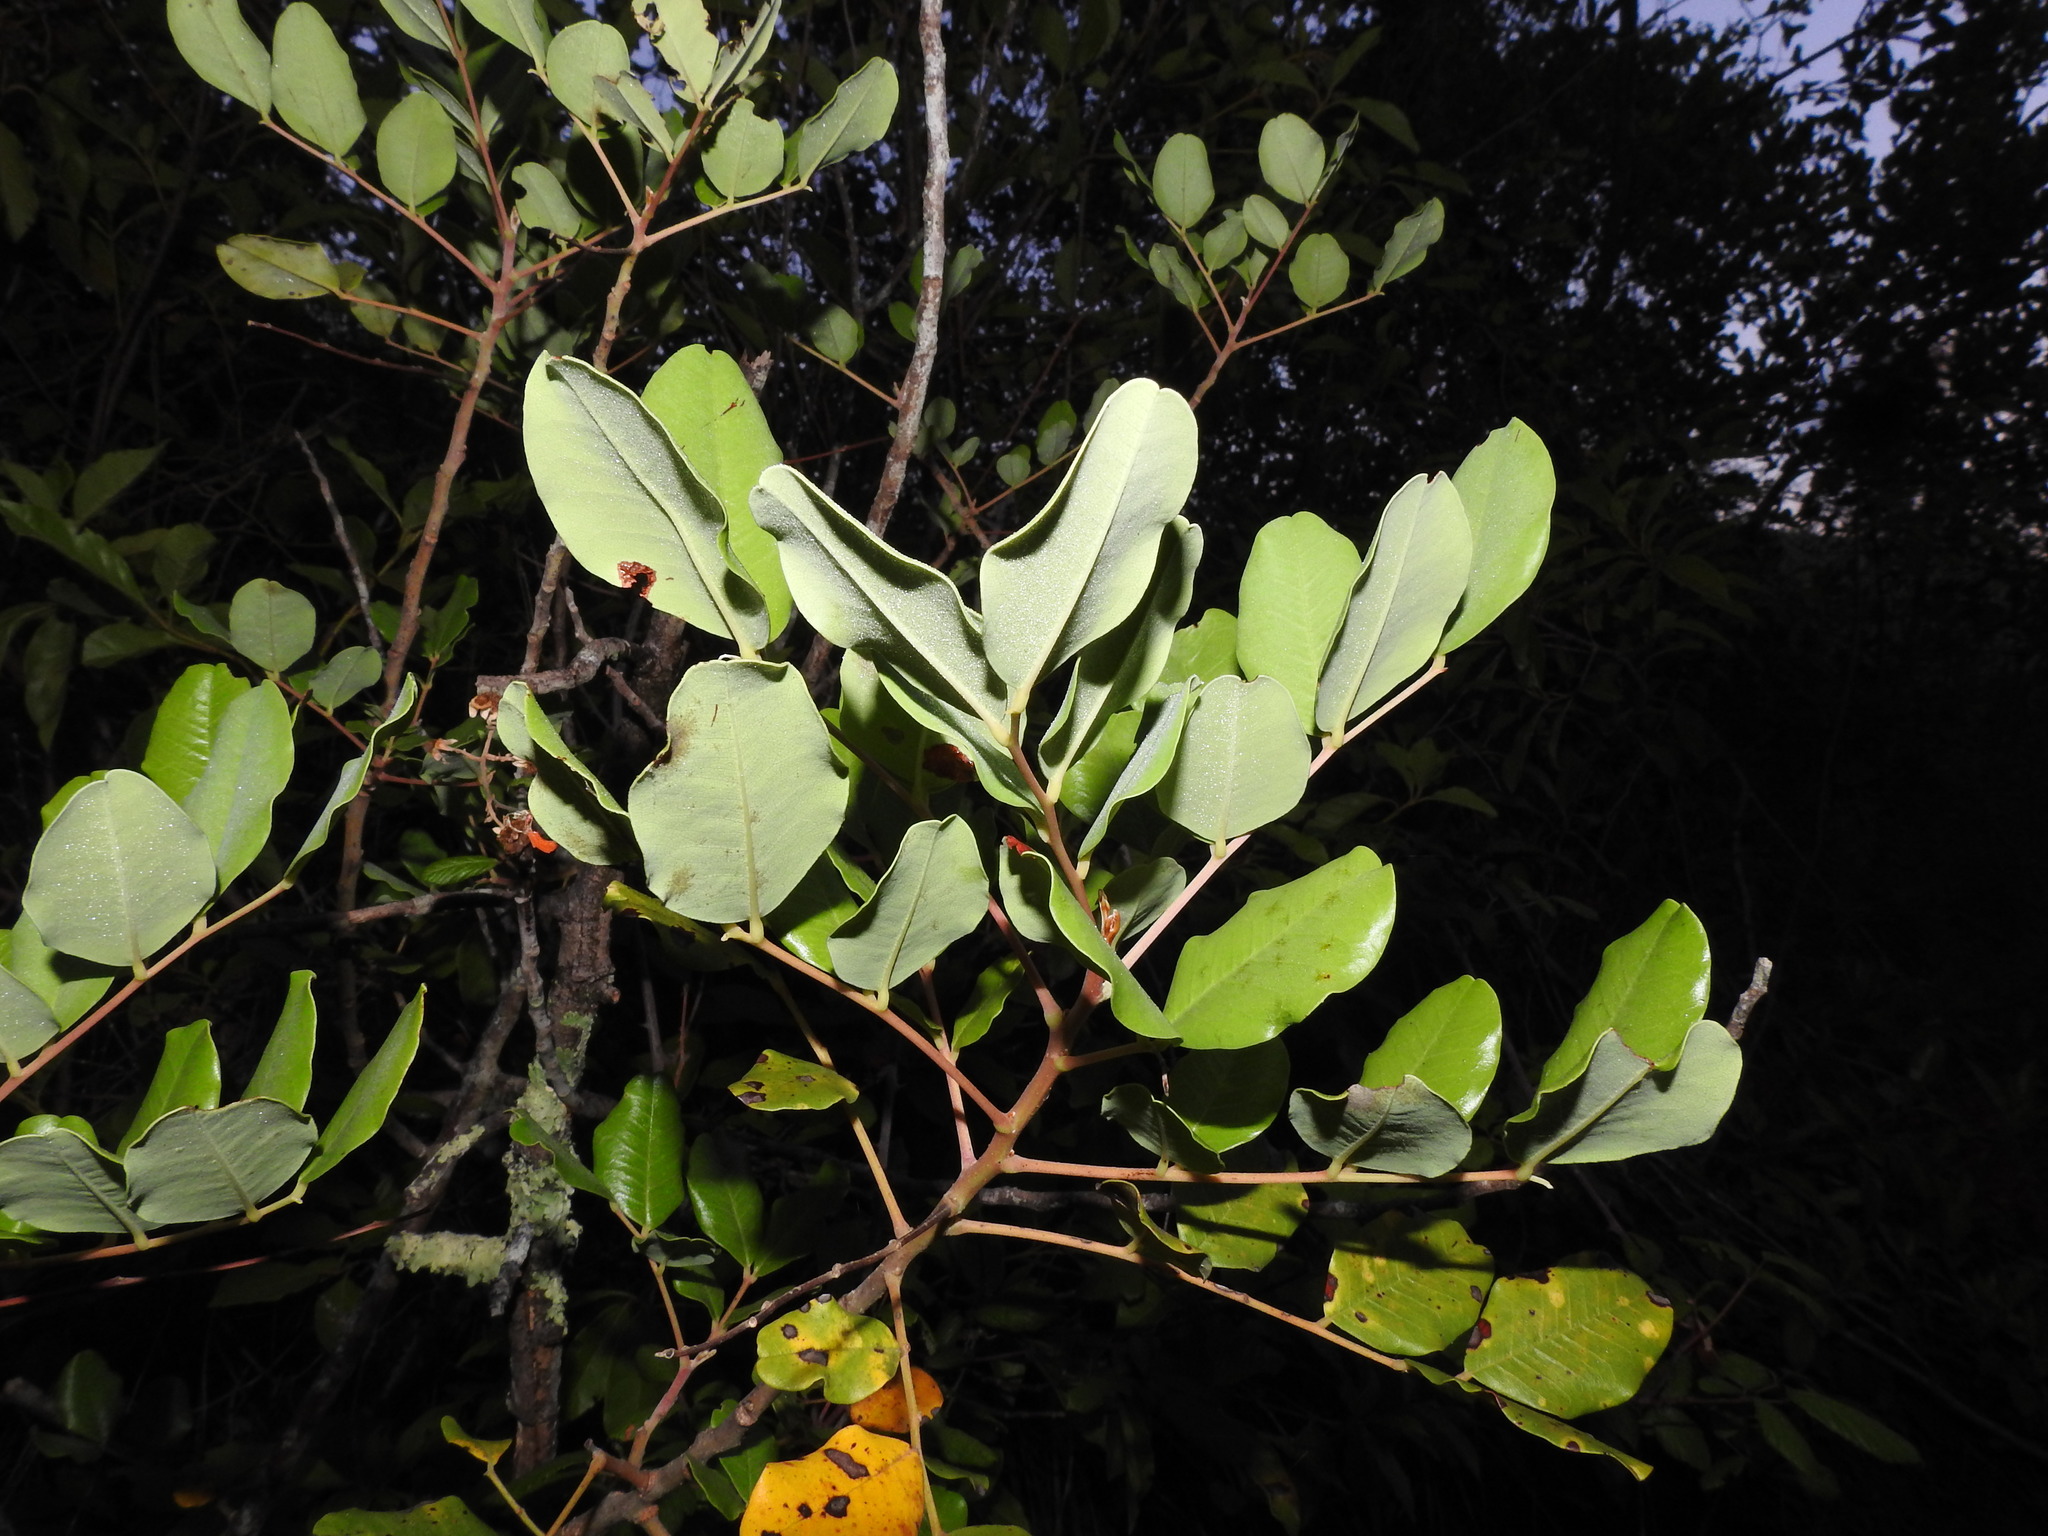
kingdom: Plantae
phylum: Tracheophyta
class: Magnoliopsida
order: Fabales
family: Fabaceae
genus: Ceratonia
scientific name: Ceratonia siliqua
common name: Carob
